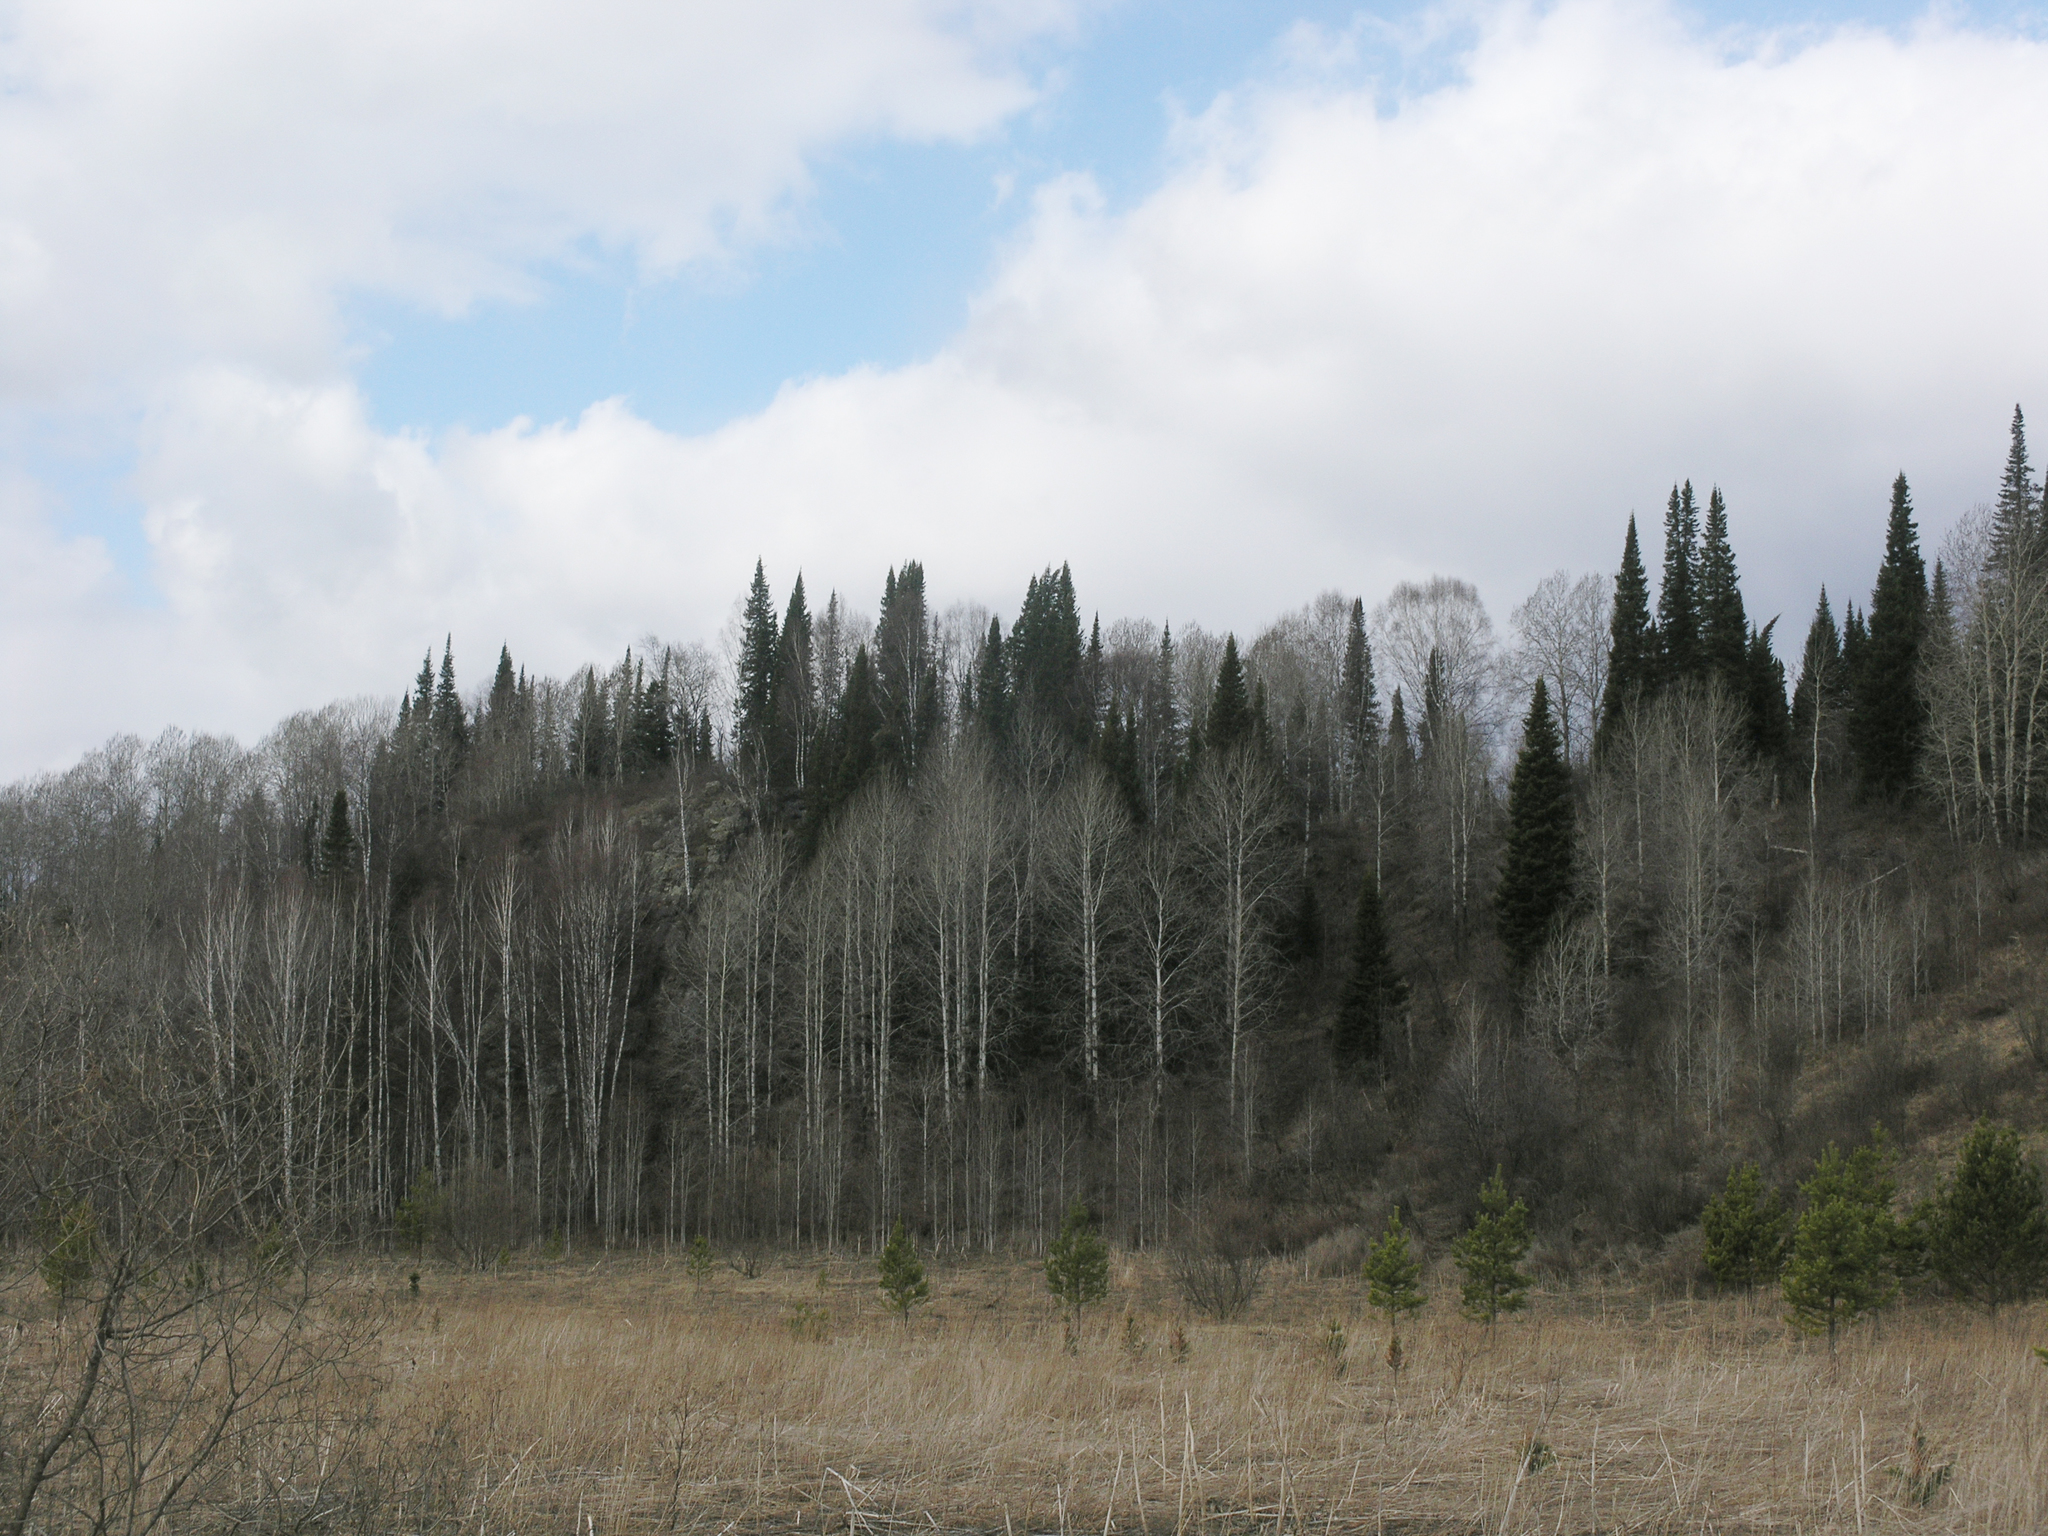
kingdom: Plantae
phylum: Tracheophyta
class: Pinopsida
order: Pinales
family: Pinaceae
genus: Pinus
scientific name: Pinus sylvestris
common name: Scots pine
